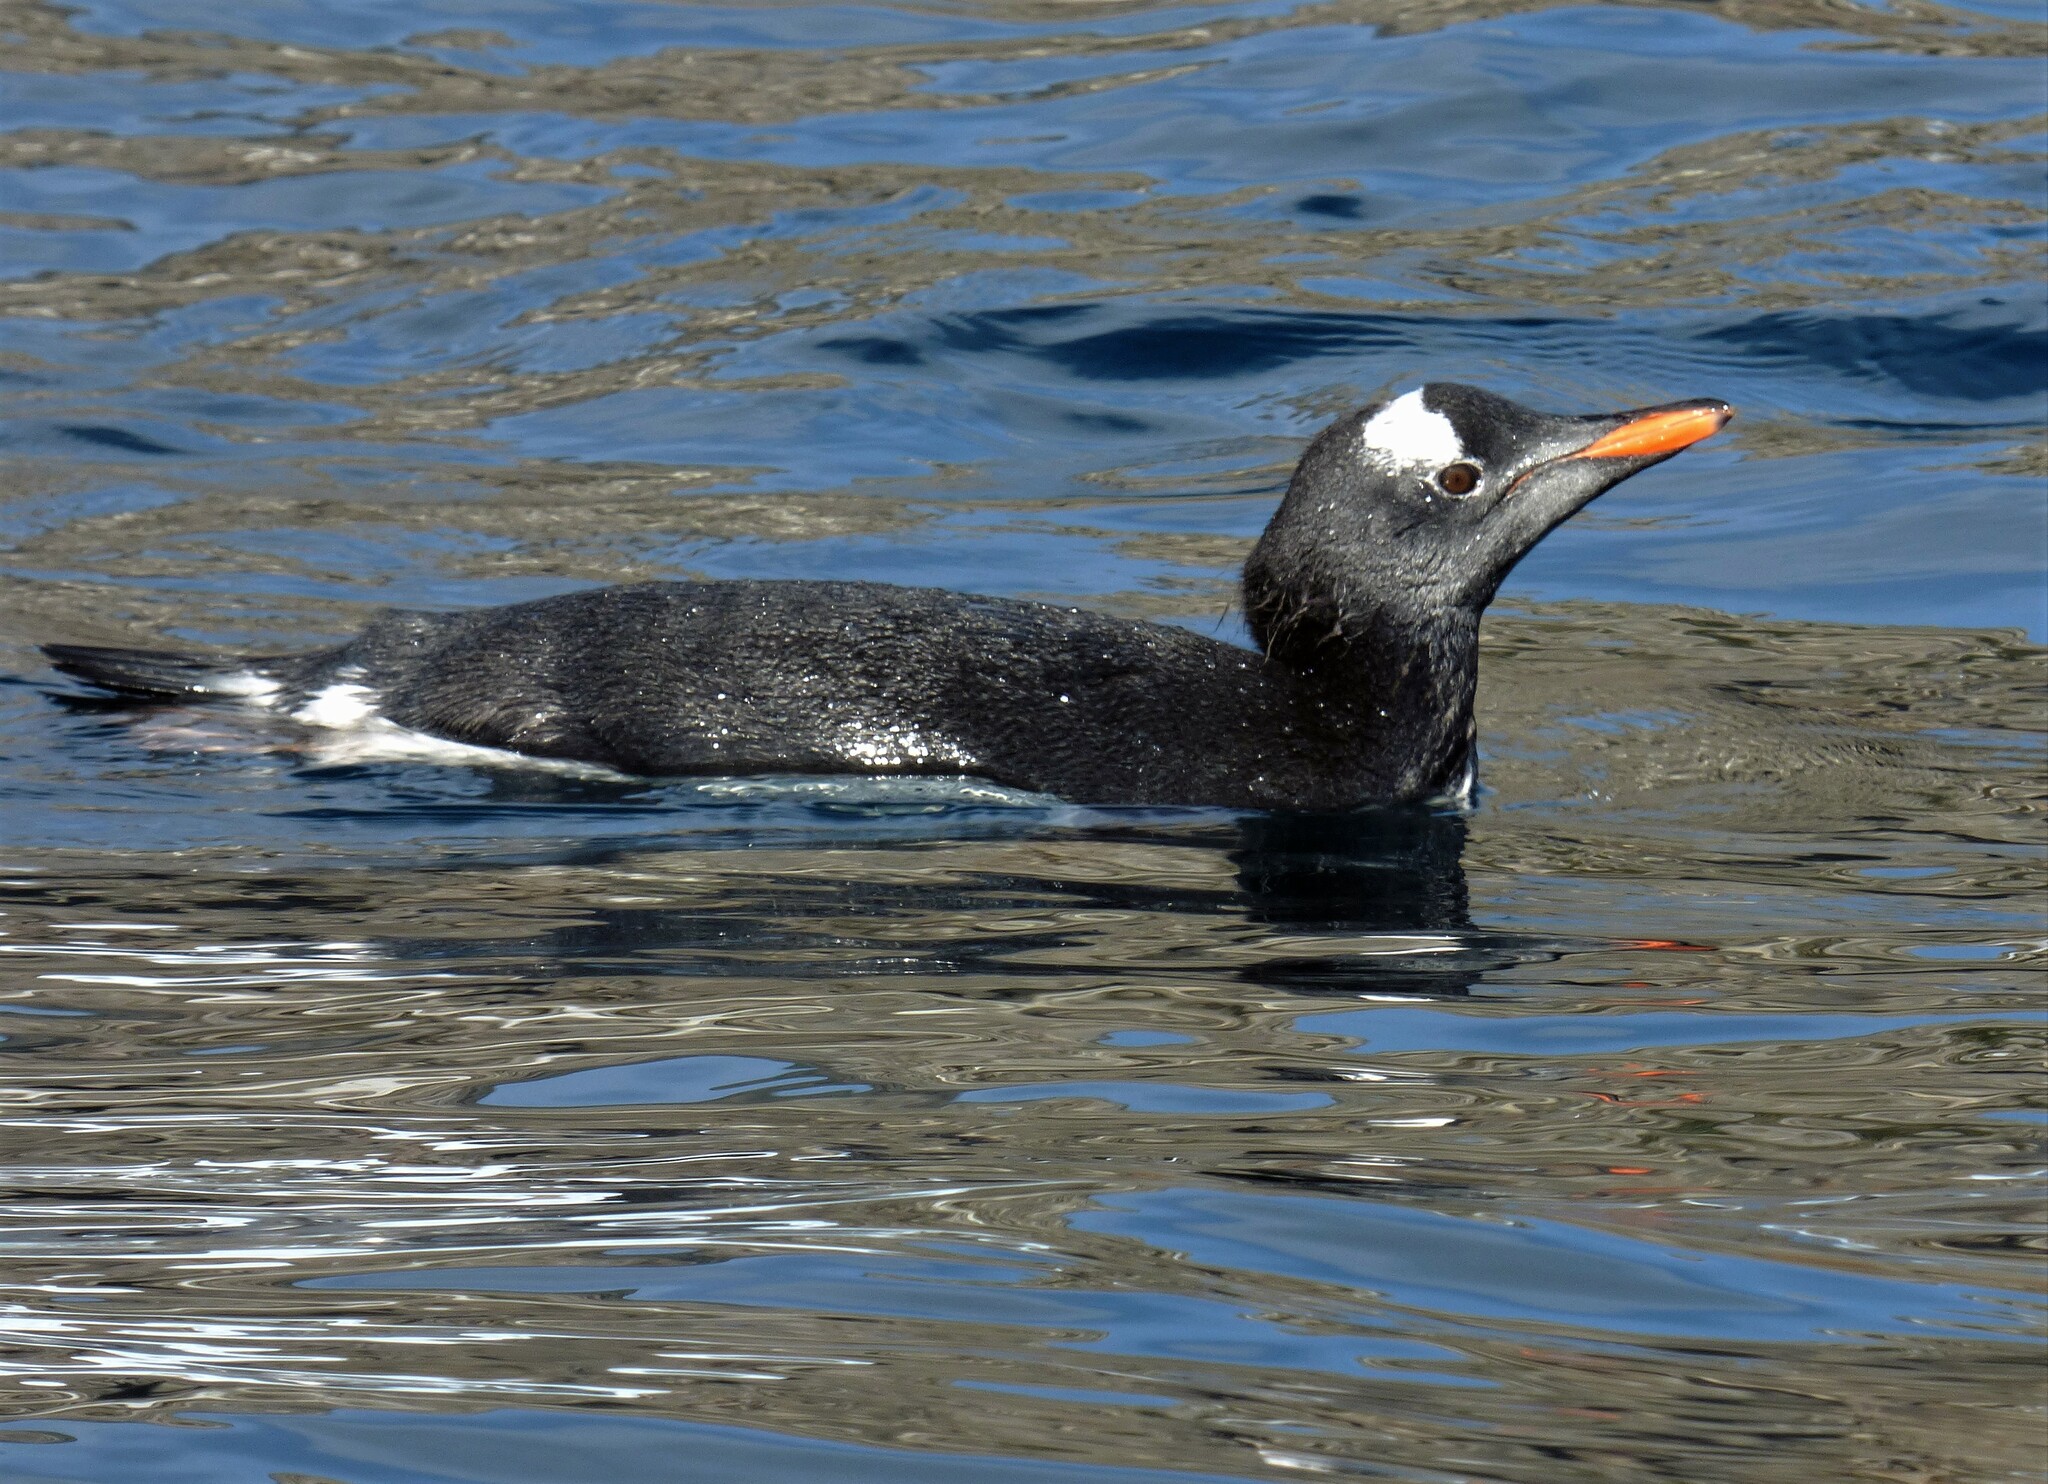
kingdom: Animalia
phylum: Chordata
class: Aves
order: Sphenisciformes
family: Spheniscidae
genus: Pygoscelis
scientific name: Pygoscelis papua
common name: Gentoo penguin
